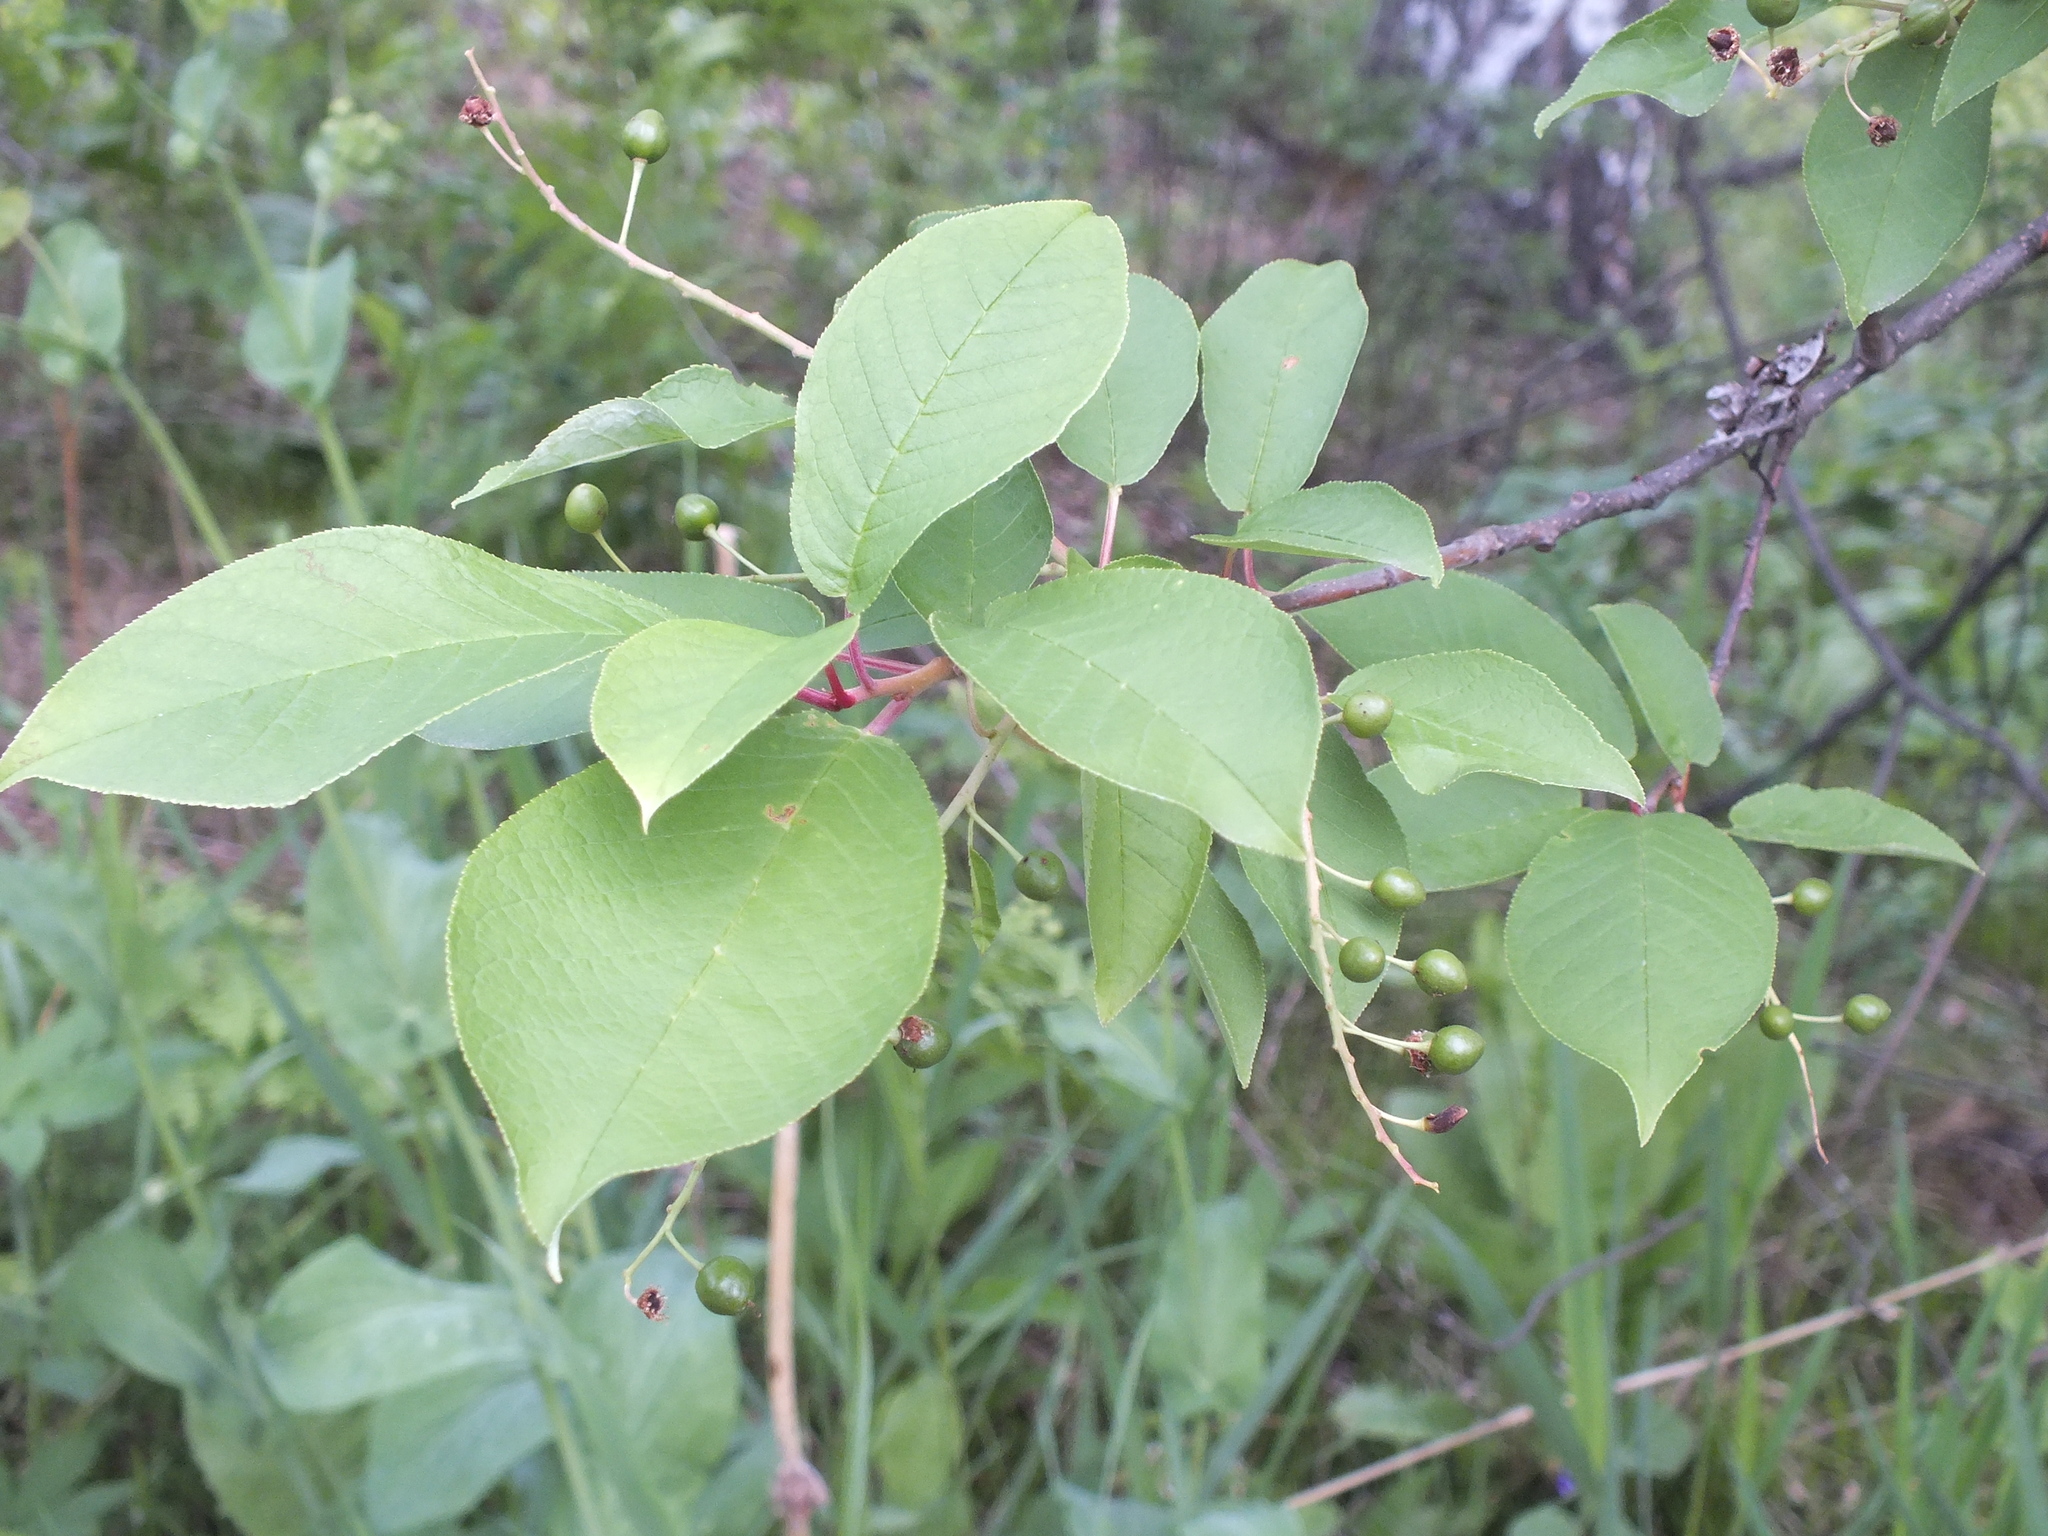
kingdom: Plantae
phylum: Tracheophyta
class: Magnoliopsida
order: Rosales
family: Rosaceae
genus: Prunus
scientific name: Prunus padus
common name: Bird cherry
